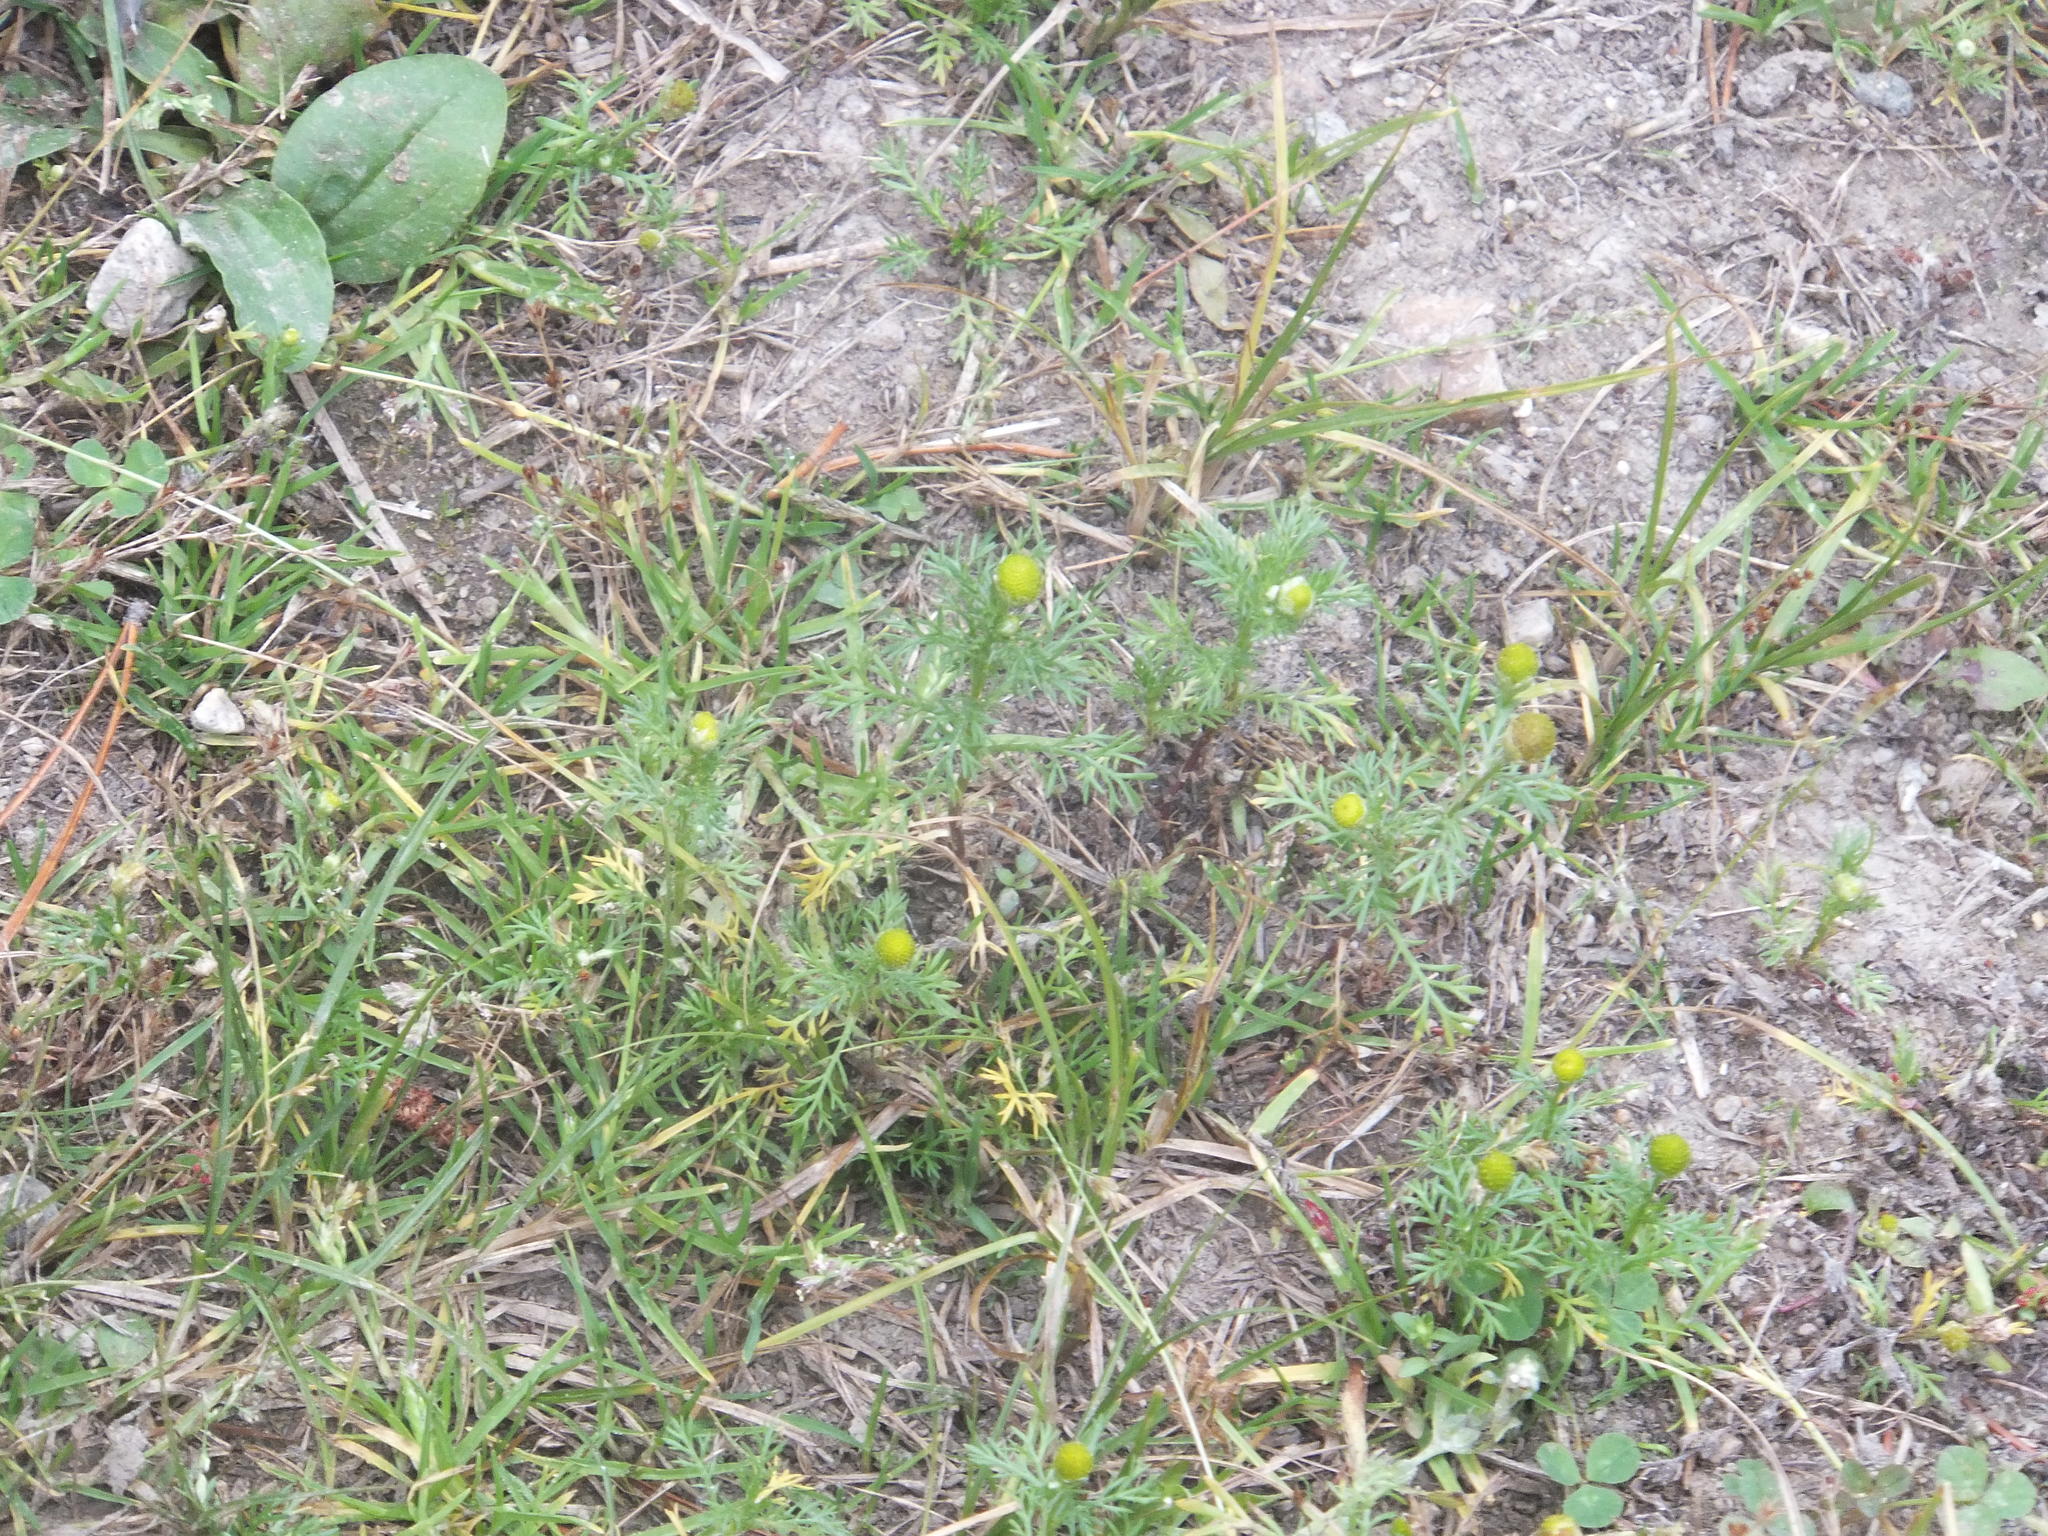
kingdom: Plantae
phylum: Tracheophyta
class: Magnoliopsida
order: Asterales
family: Asteraceae
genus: Matricaria
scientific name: Matricaria discoidea
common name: Disc mayweed
